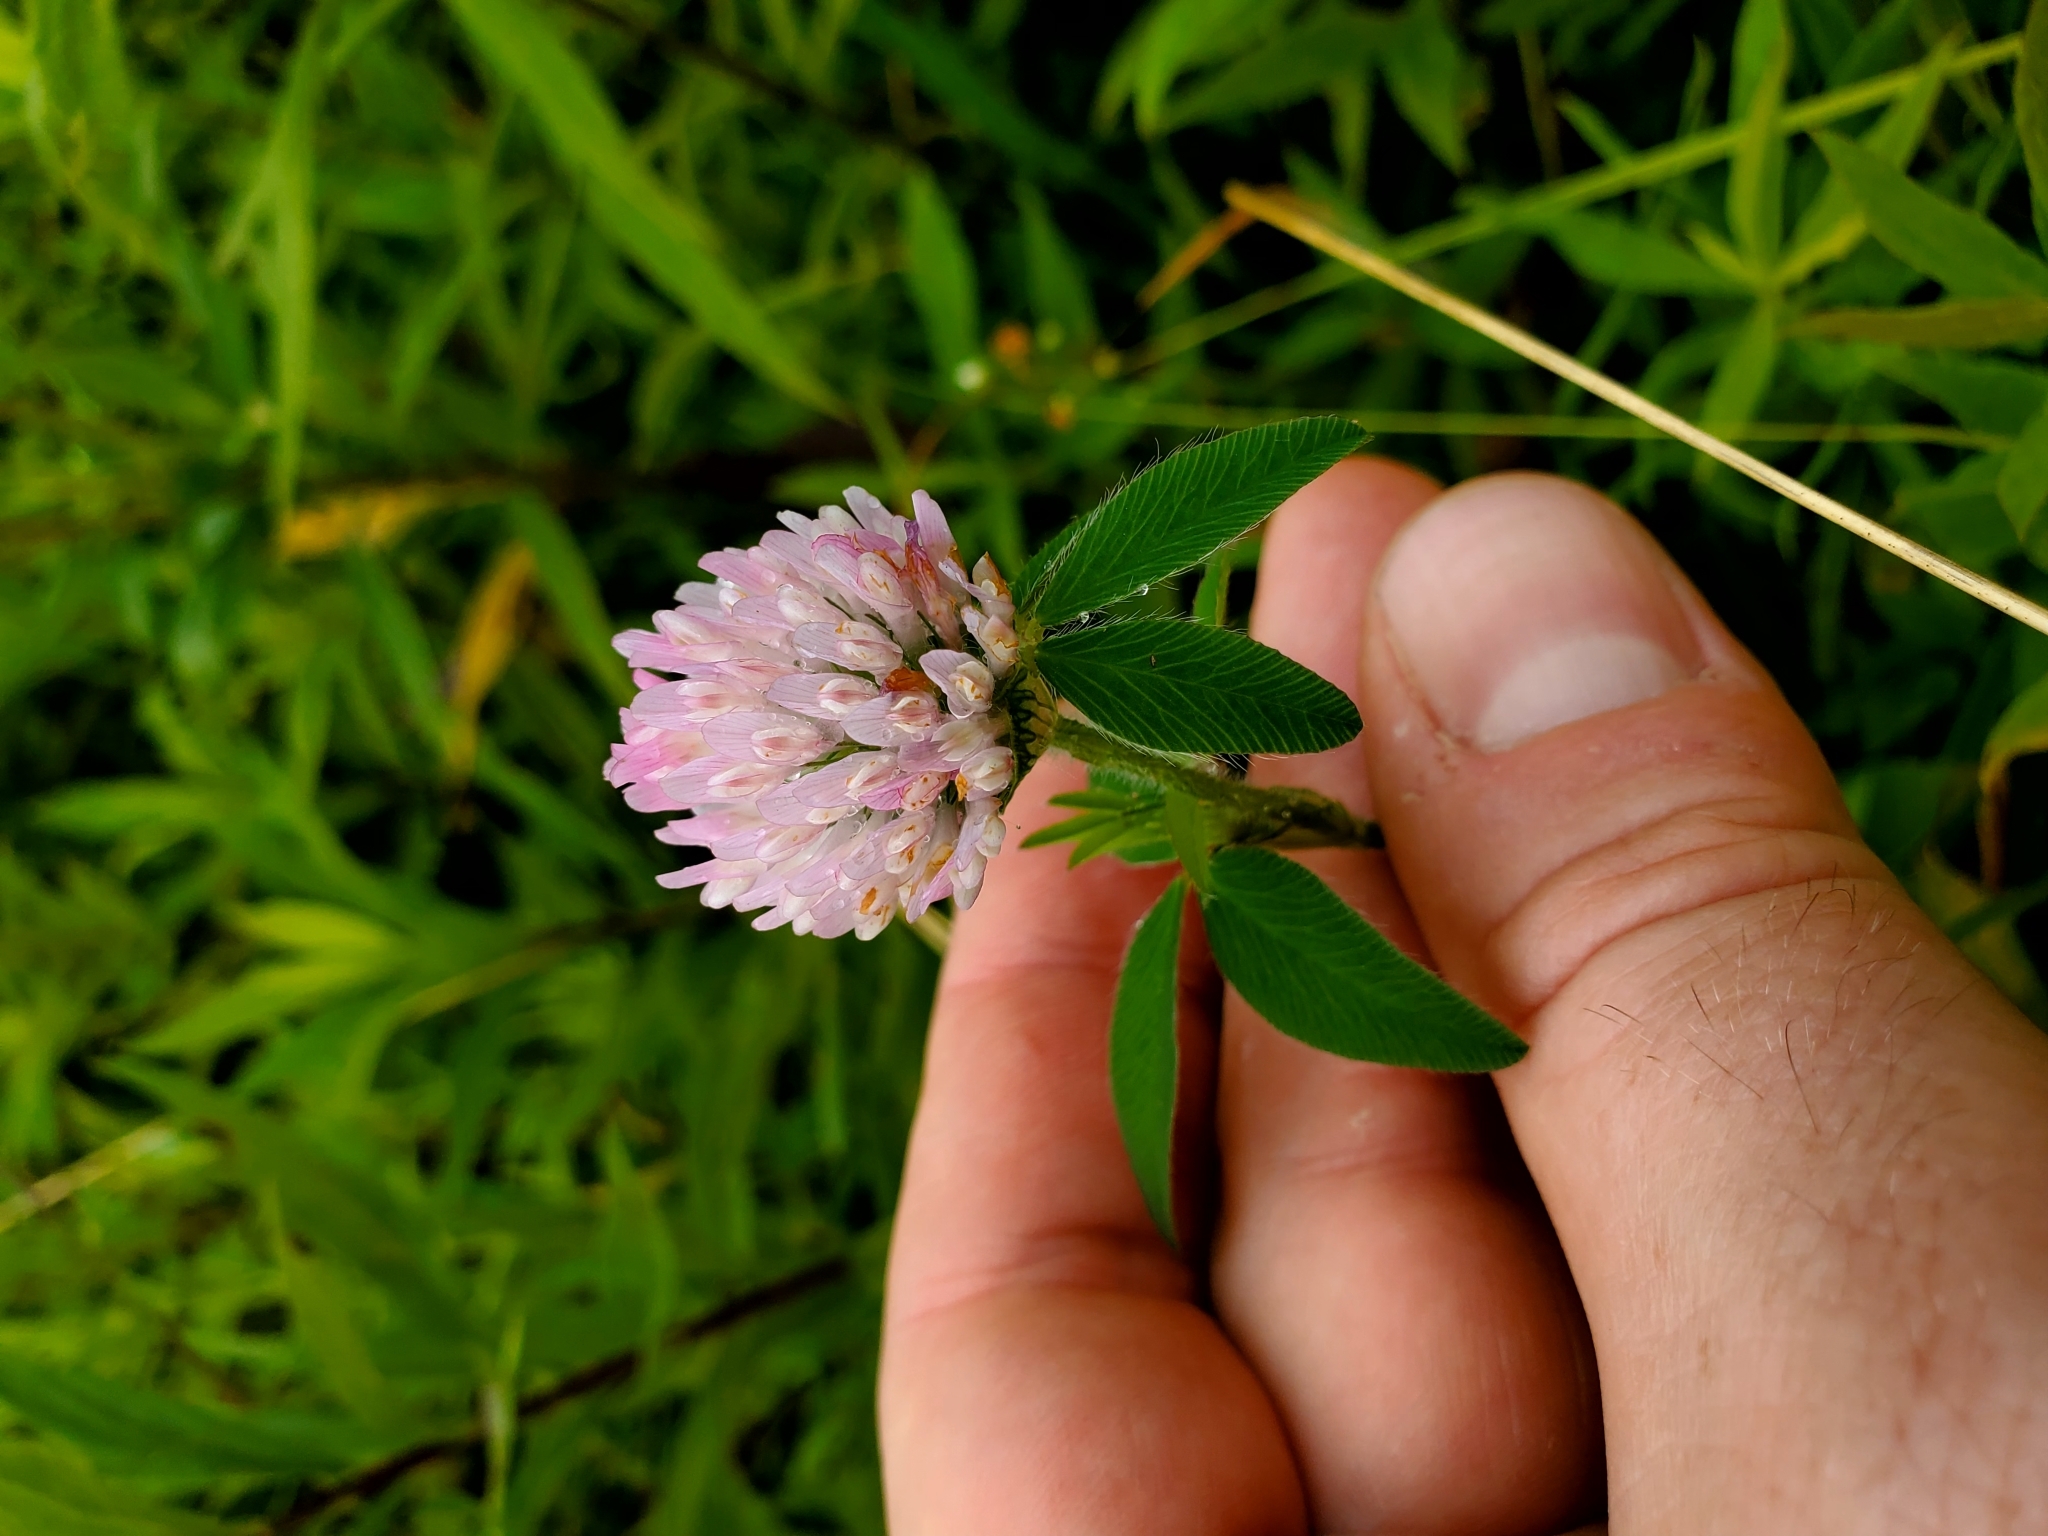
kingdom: Plantae
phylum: Tracheophyta
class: Magnoliopsida
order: Fabales
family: Fabaceae
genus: Trifolium
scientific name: Trifolium pratense
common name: Red clover
